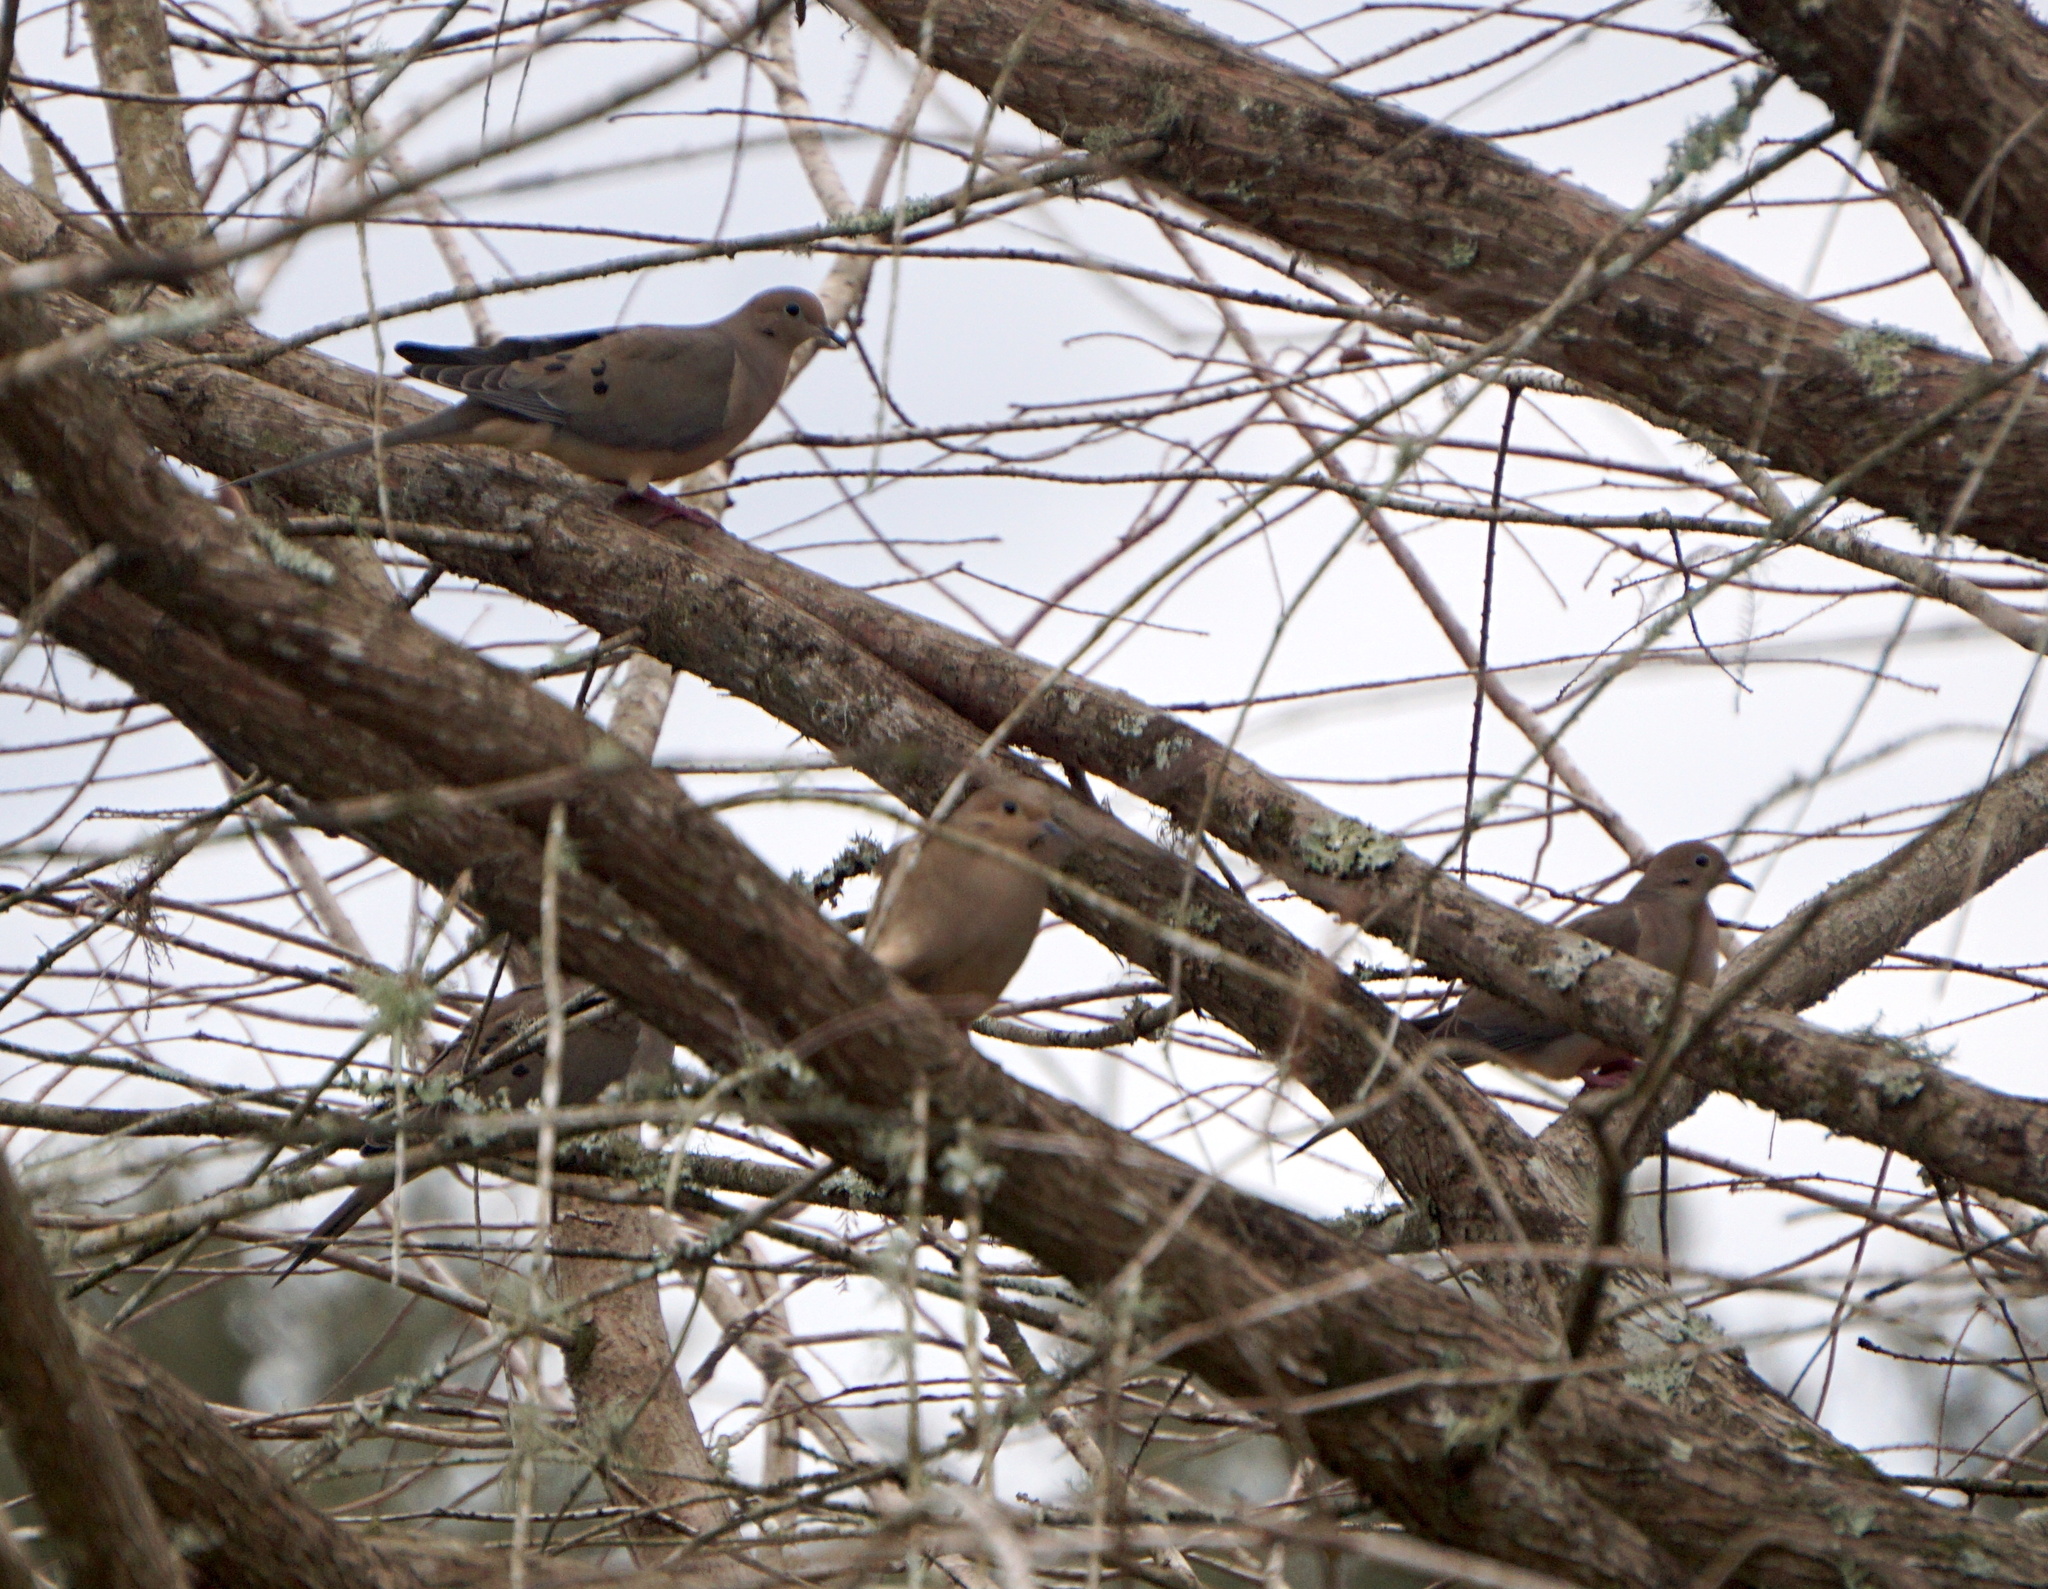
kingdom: Animalia
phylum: Chordata
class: Aves
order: Columbiformes
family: Columbidae
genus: Zenaida
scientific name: Zenaida macroura
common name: Mourning dove
